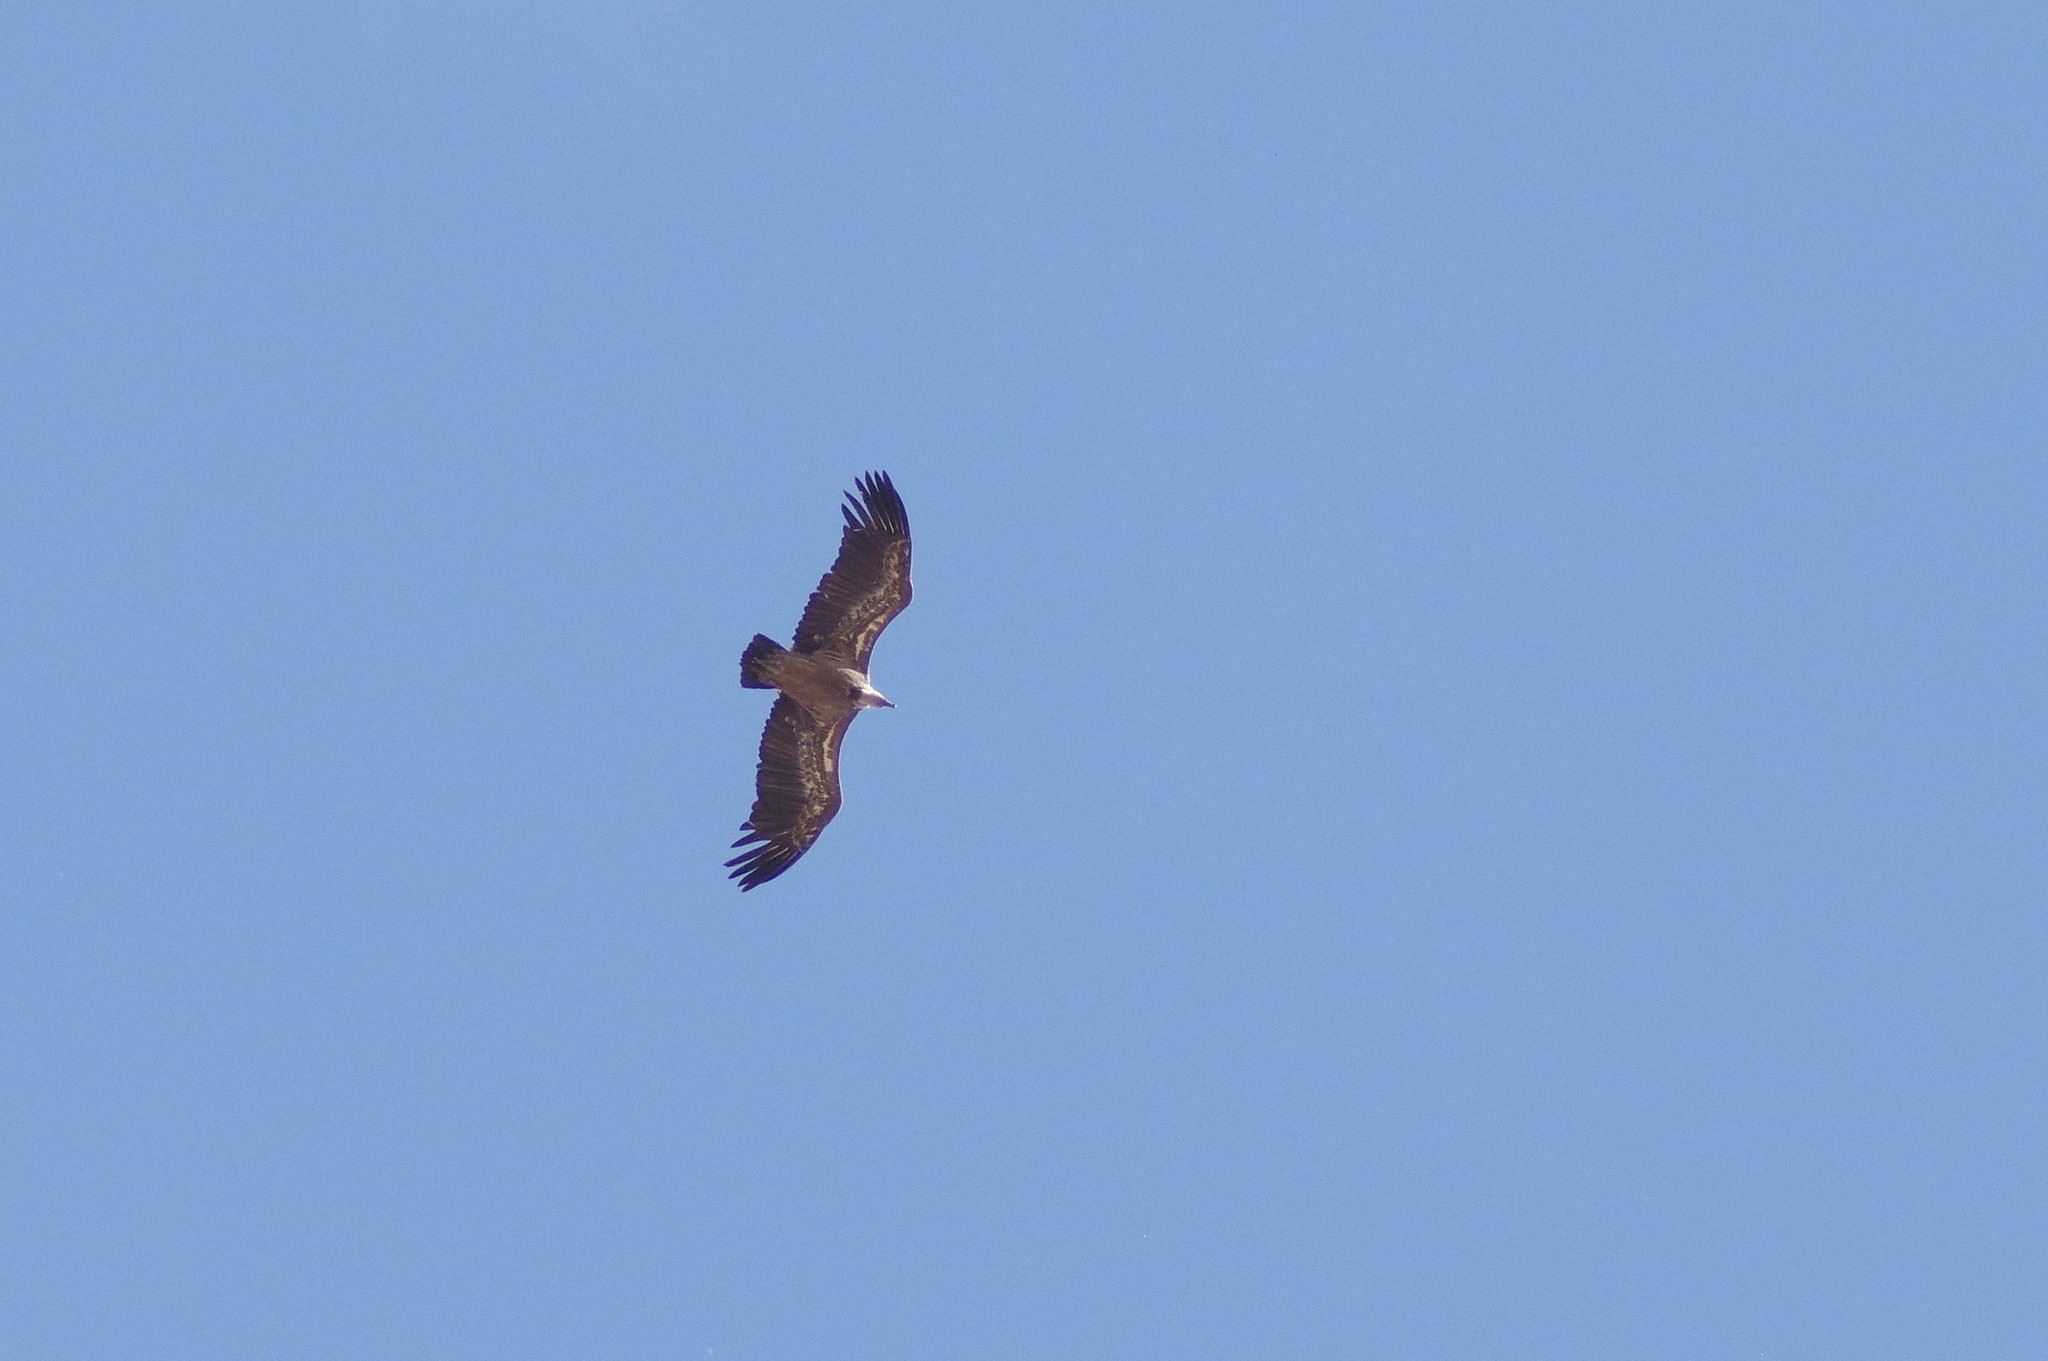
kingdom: Animalia
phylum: Chordata
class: Aves
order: Accipitriformes
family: Accipitridae
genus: Gyps
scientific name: Gyps fulvus
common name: Griffon vulture
